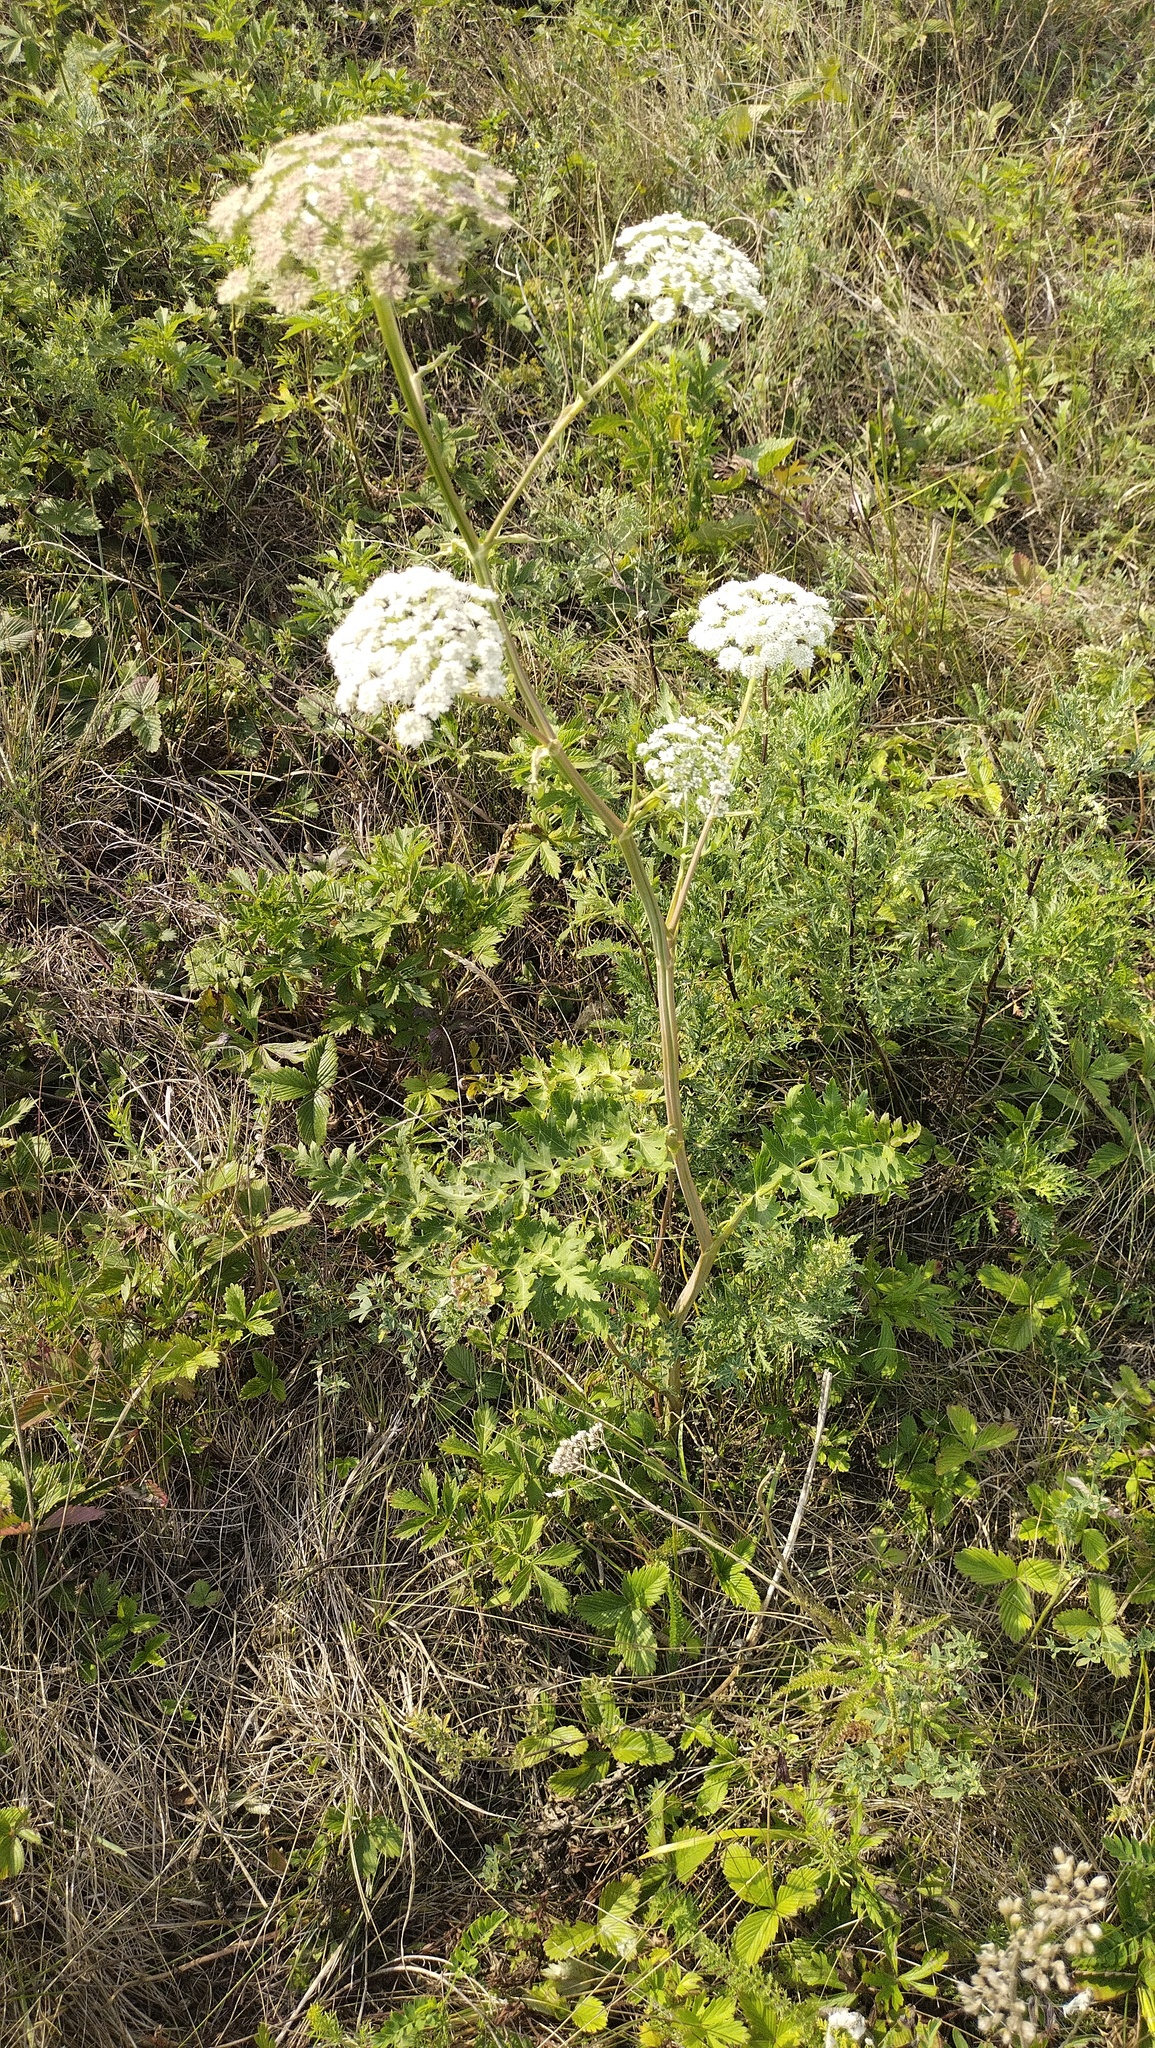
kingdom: Plantae
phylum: Tracheophyta
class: Magnoliopsida
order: Apiales
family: Apiaceae
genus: Seseli
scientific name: Seseli libanotis
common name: Mooncarrot
